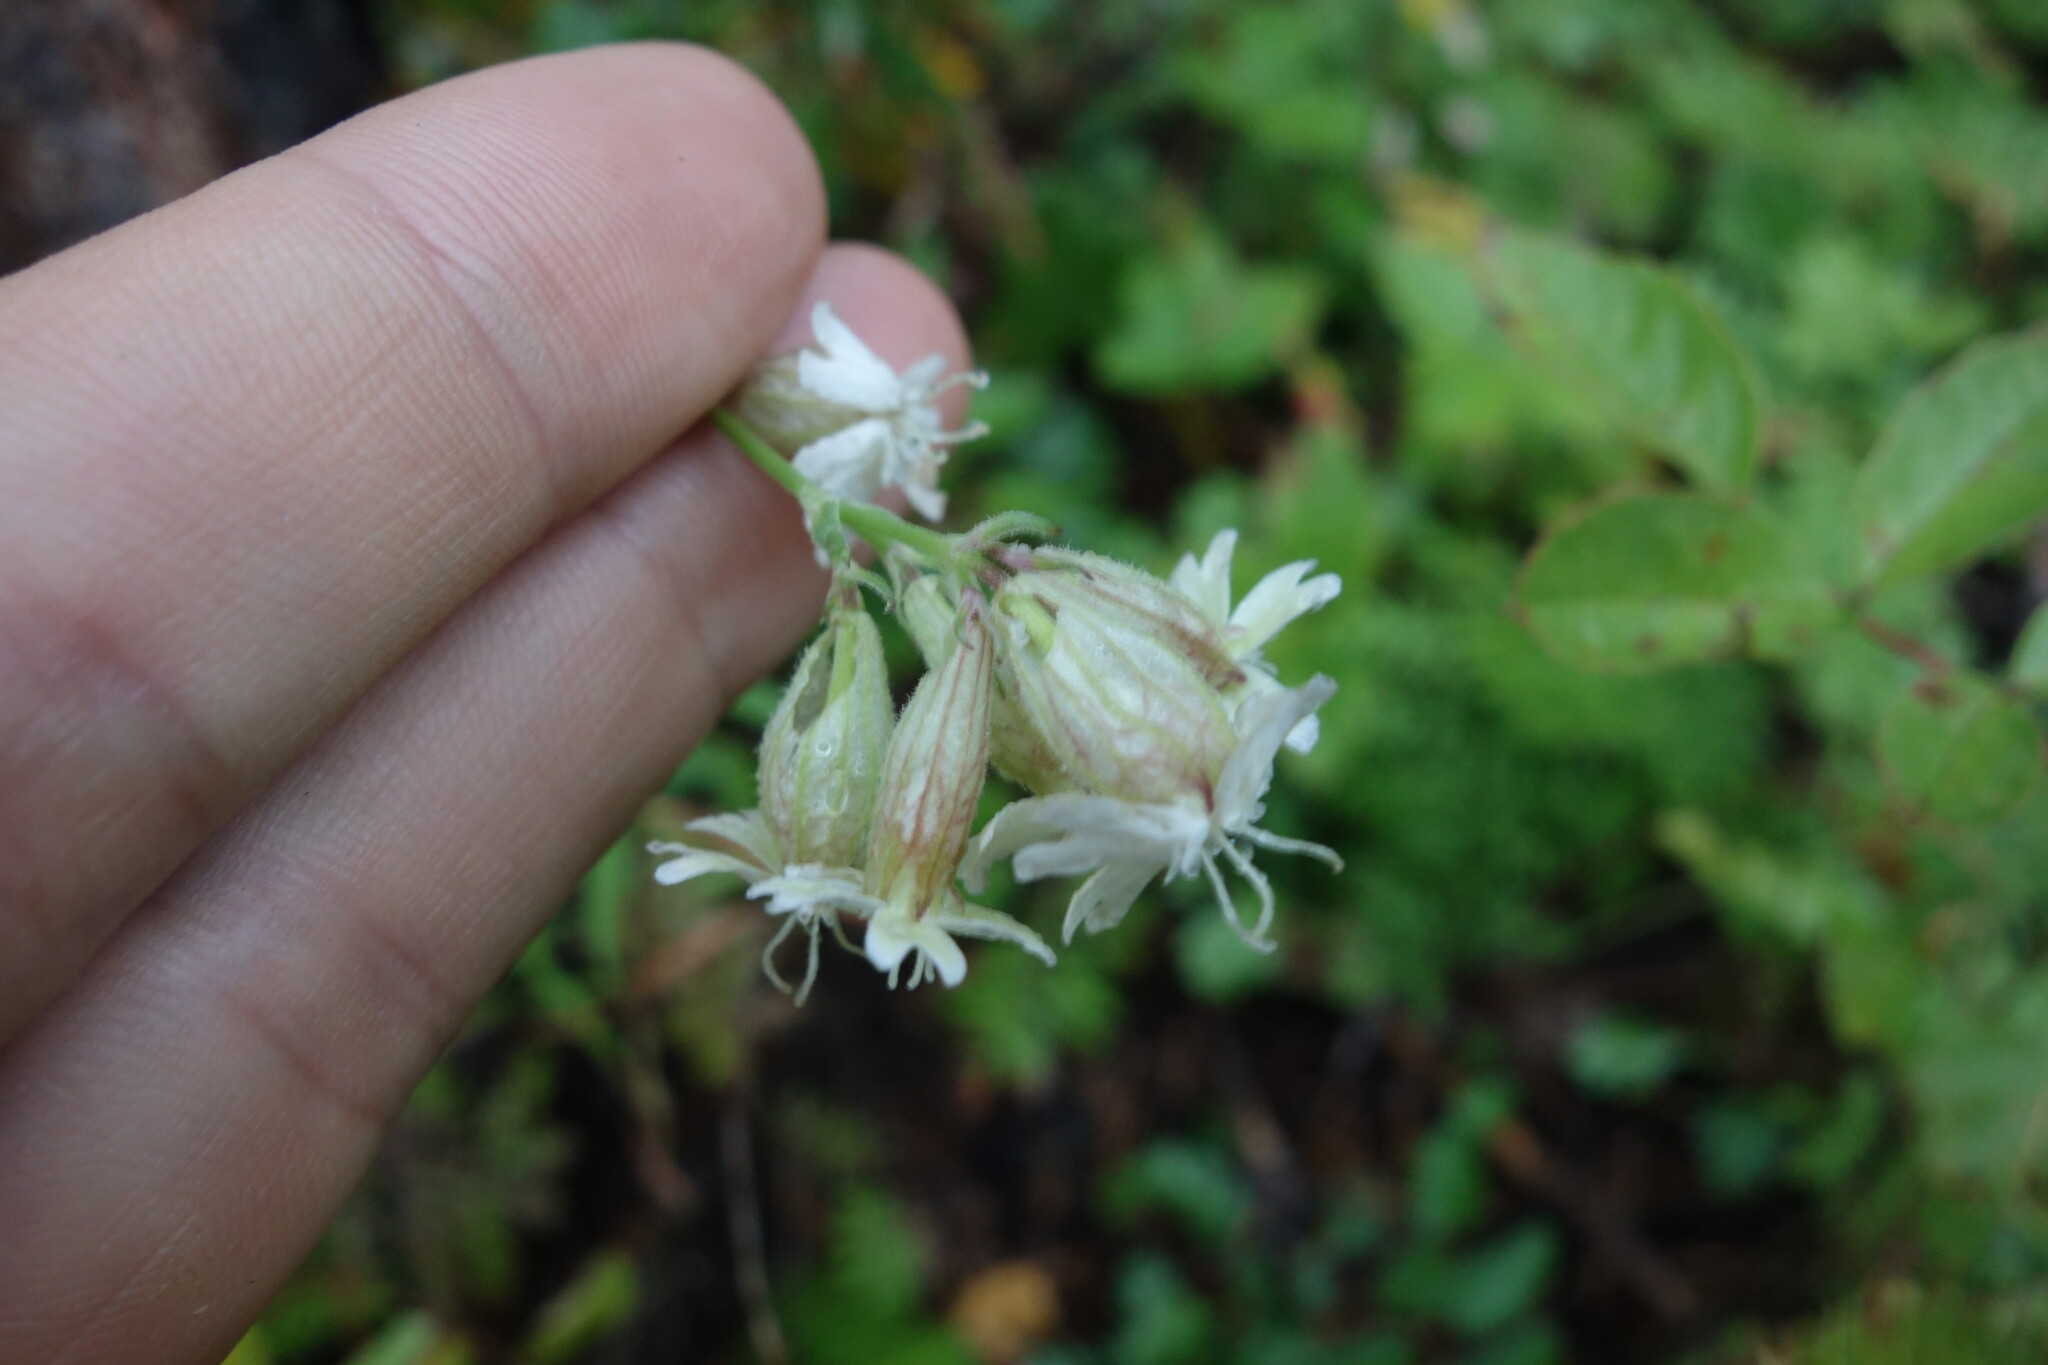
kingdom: Plantae
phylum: Tracheophyta
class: Magnoliopsida
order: Caryophyllales
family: Caryophyllaceae
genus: Silene
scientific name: Silene amoena
